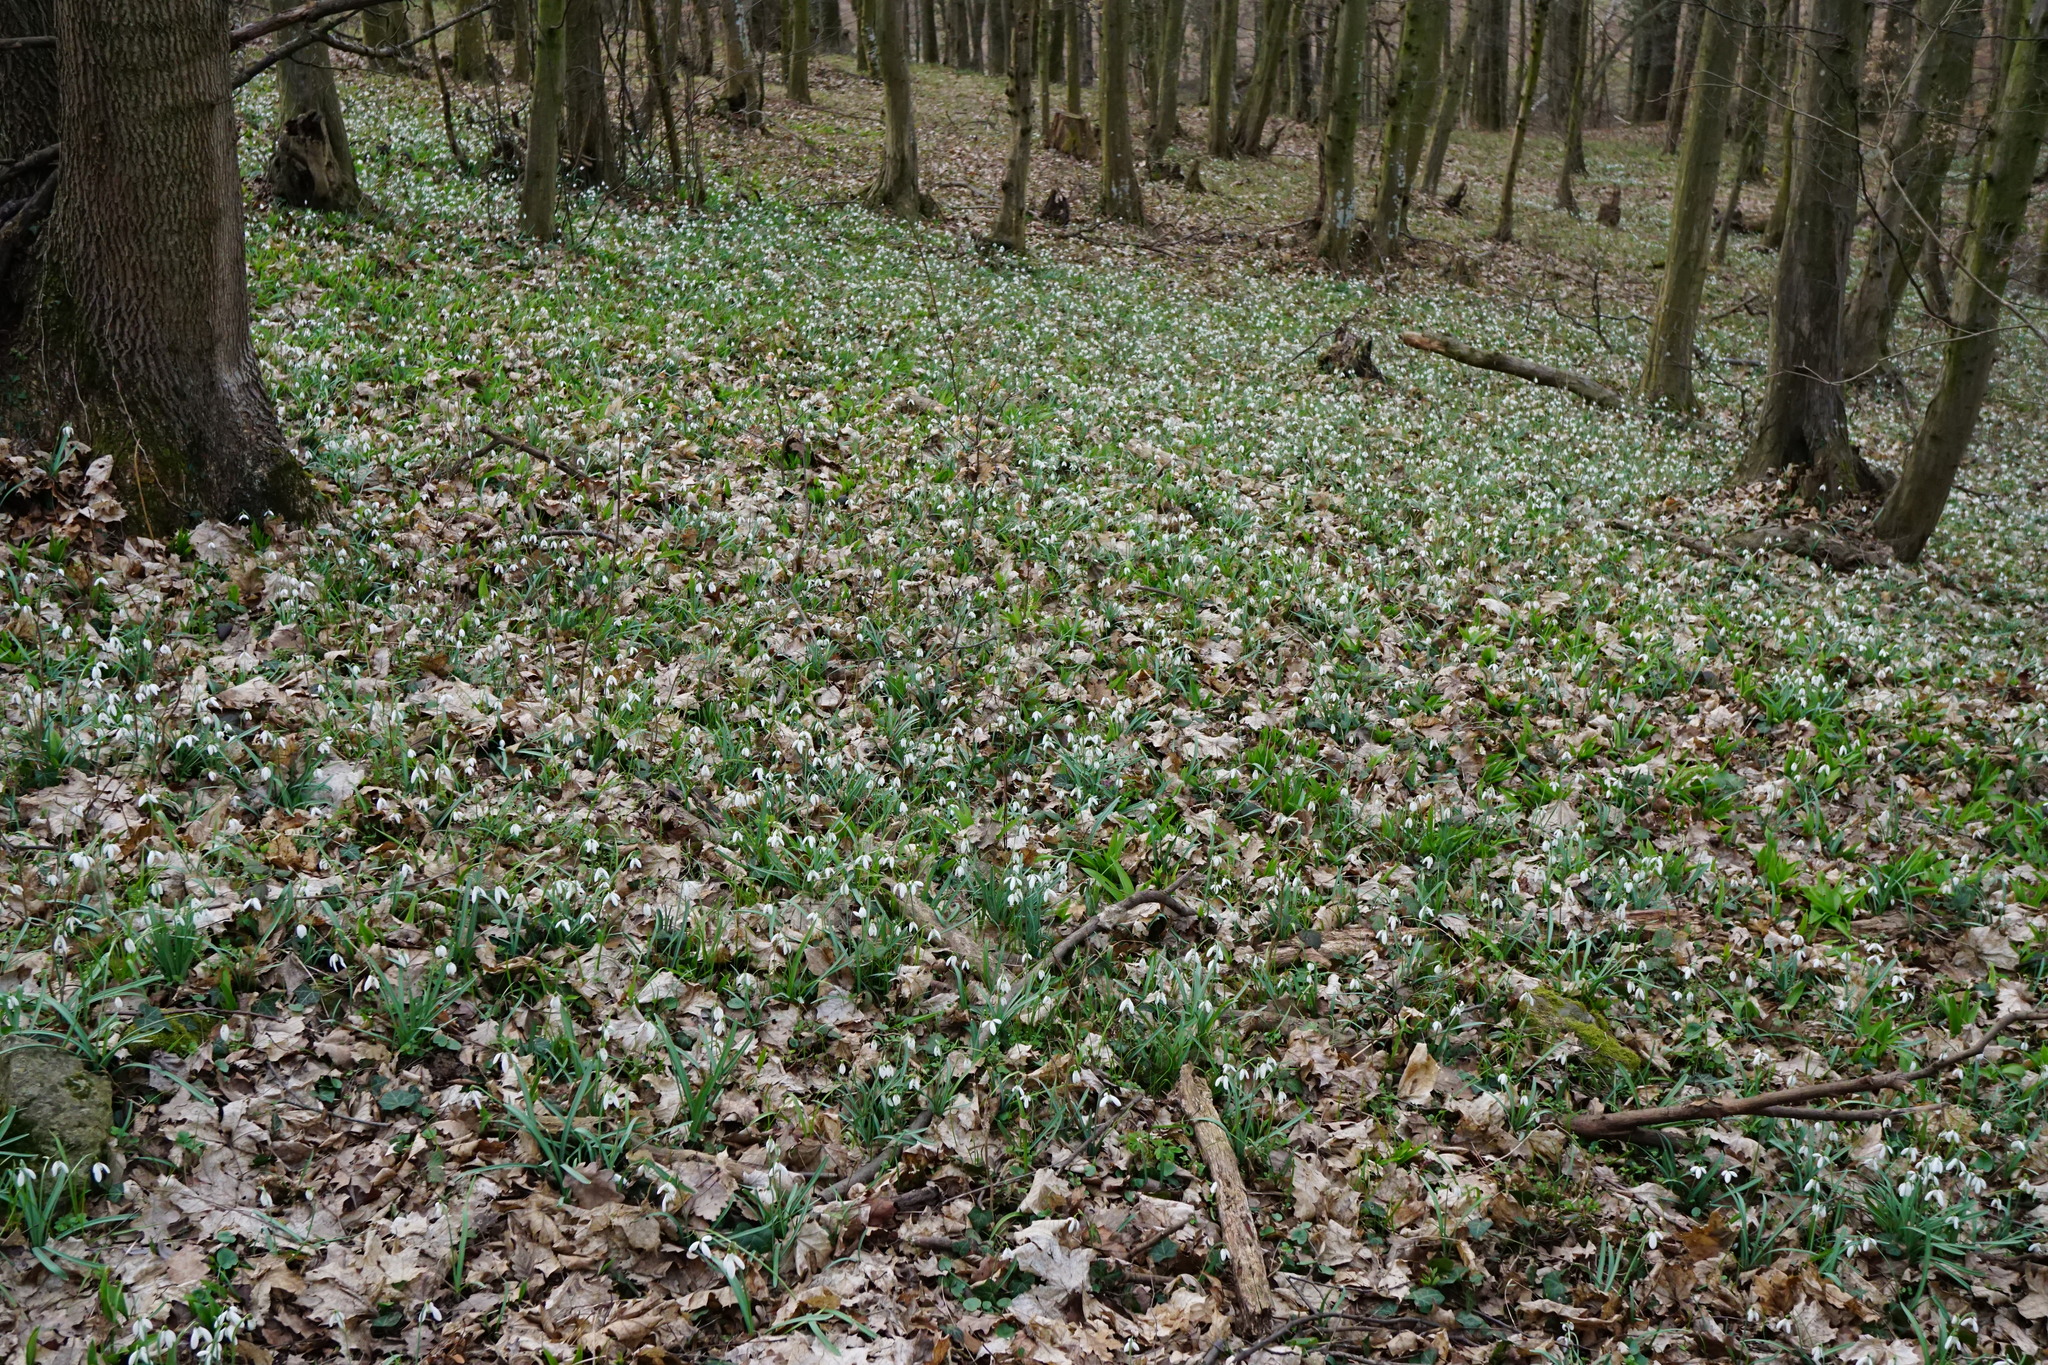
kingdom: Plantae
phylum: Tracheophyta
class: Liliopsida
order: Asparagales
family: Amaryllidaceae
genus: Galanthus
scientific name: Galanthus nivalis
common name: Snowdrop
